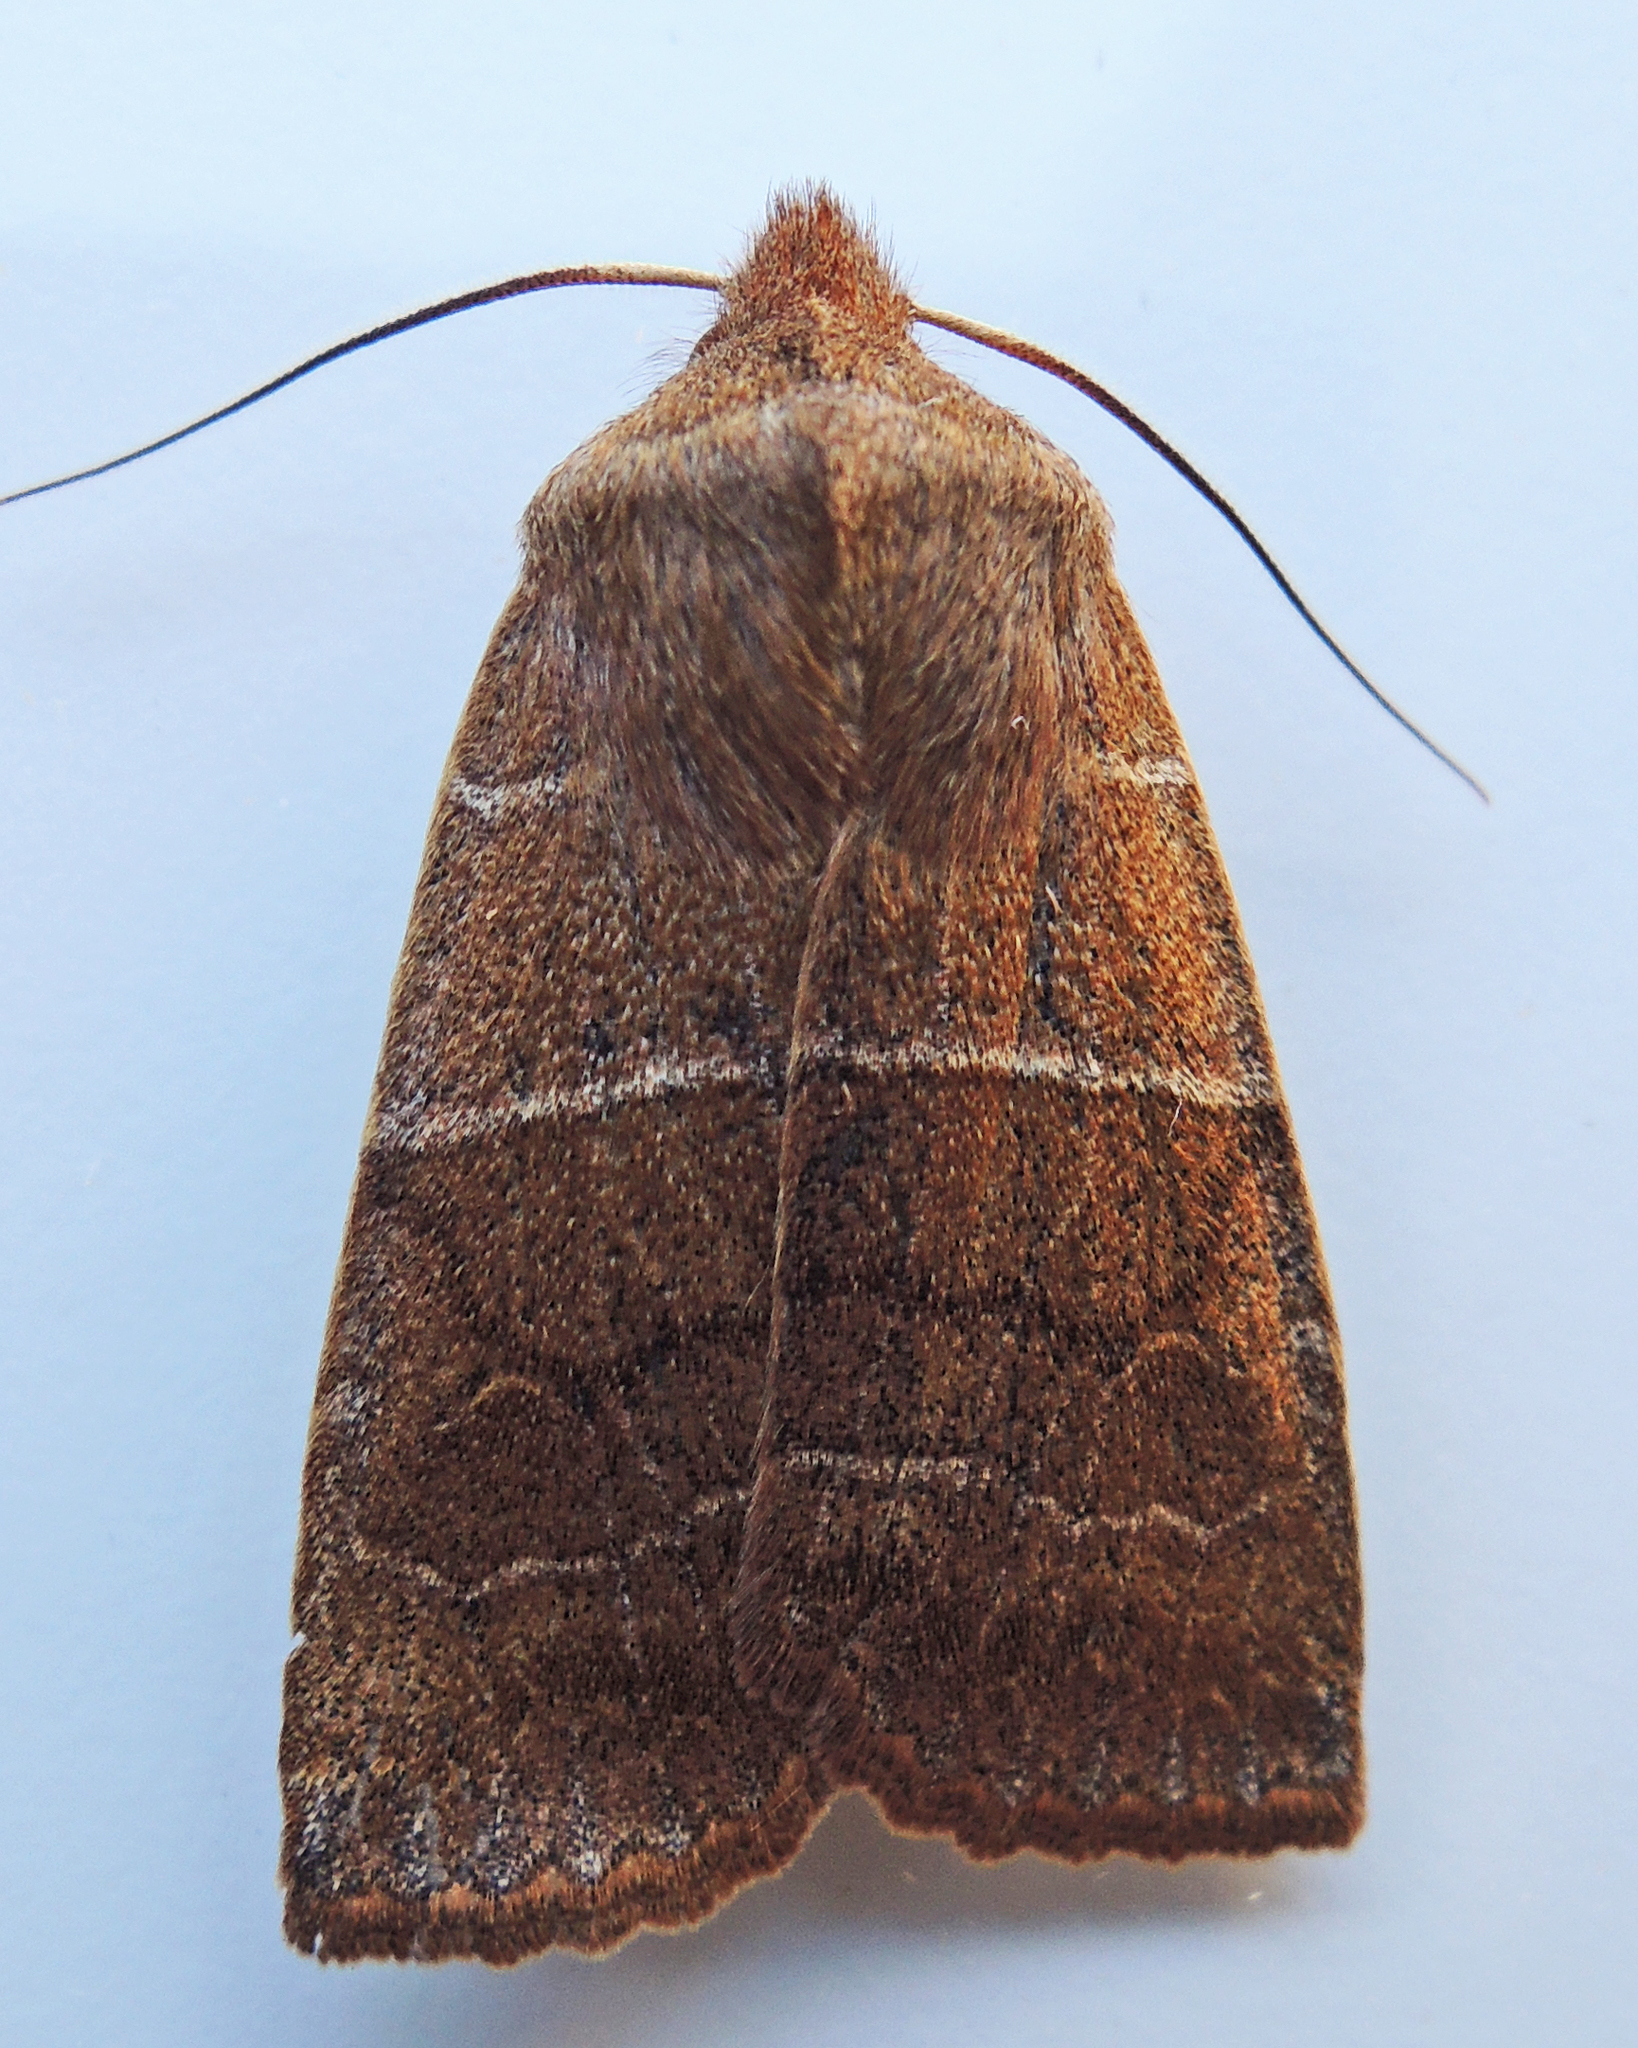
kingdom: Animalia
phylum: Arthropoda
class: Insecta
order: Lepidoptera
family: Noctuidae
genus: Eupsilia
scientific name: Eupsilia morrisoni
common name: Morrison's sallow
